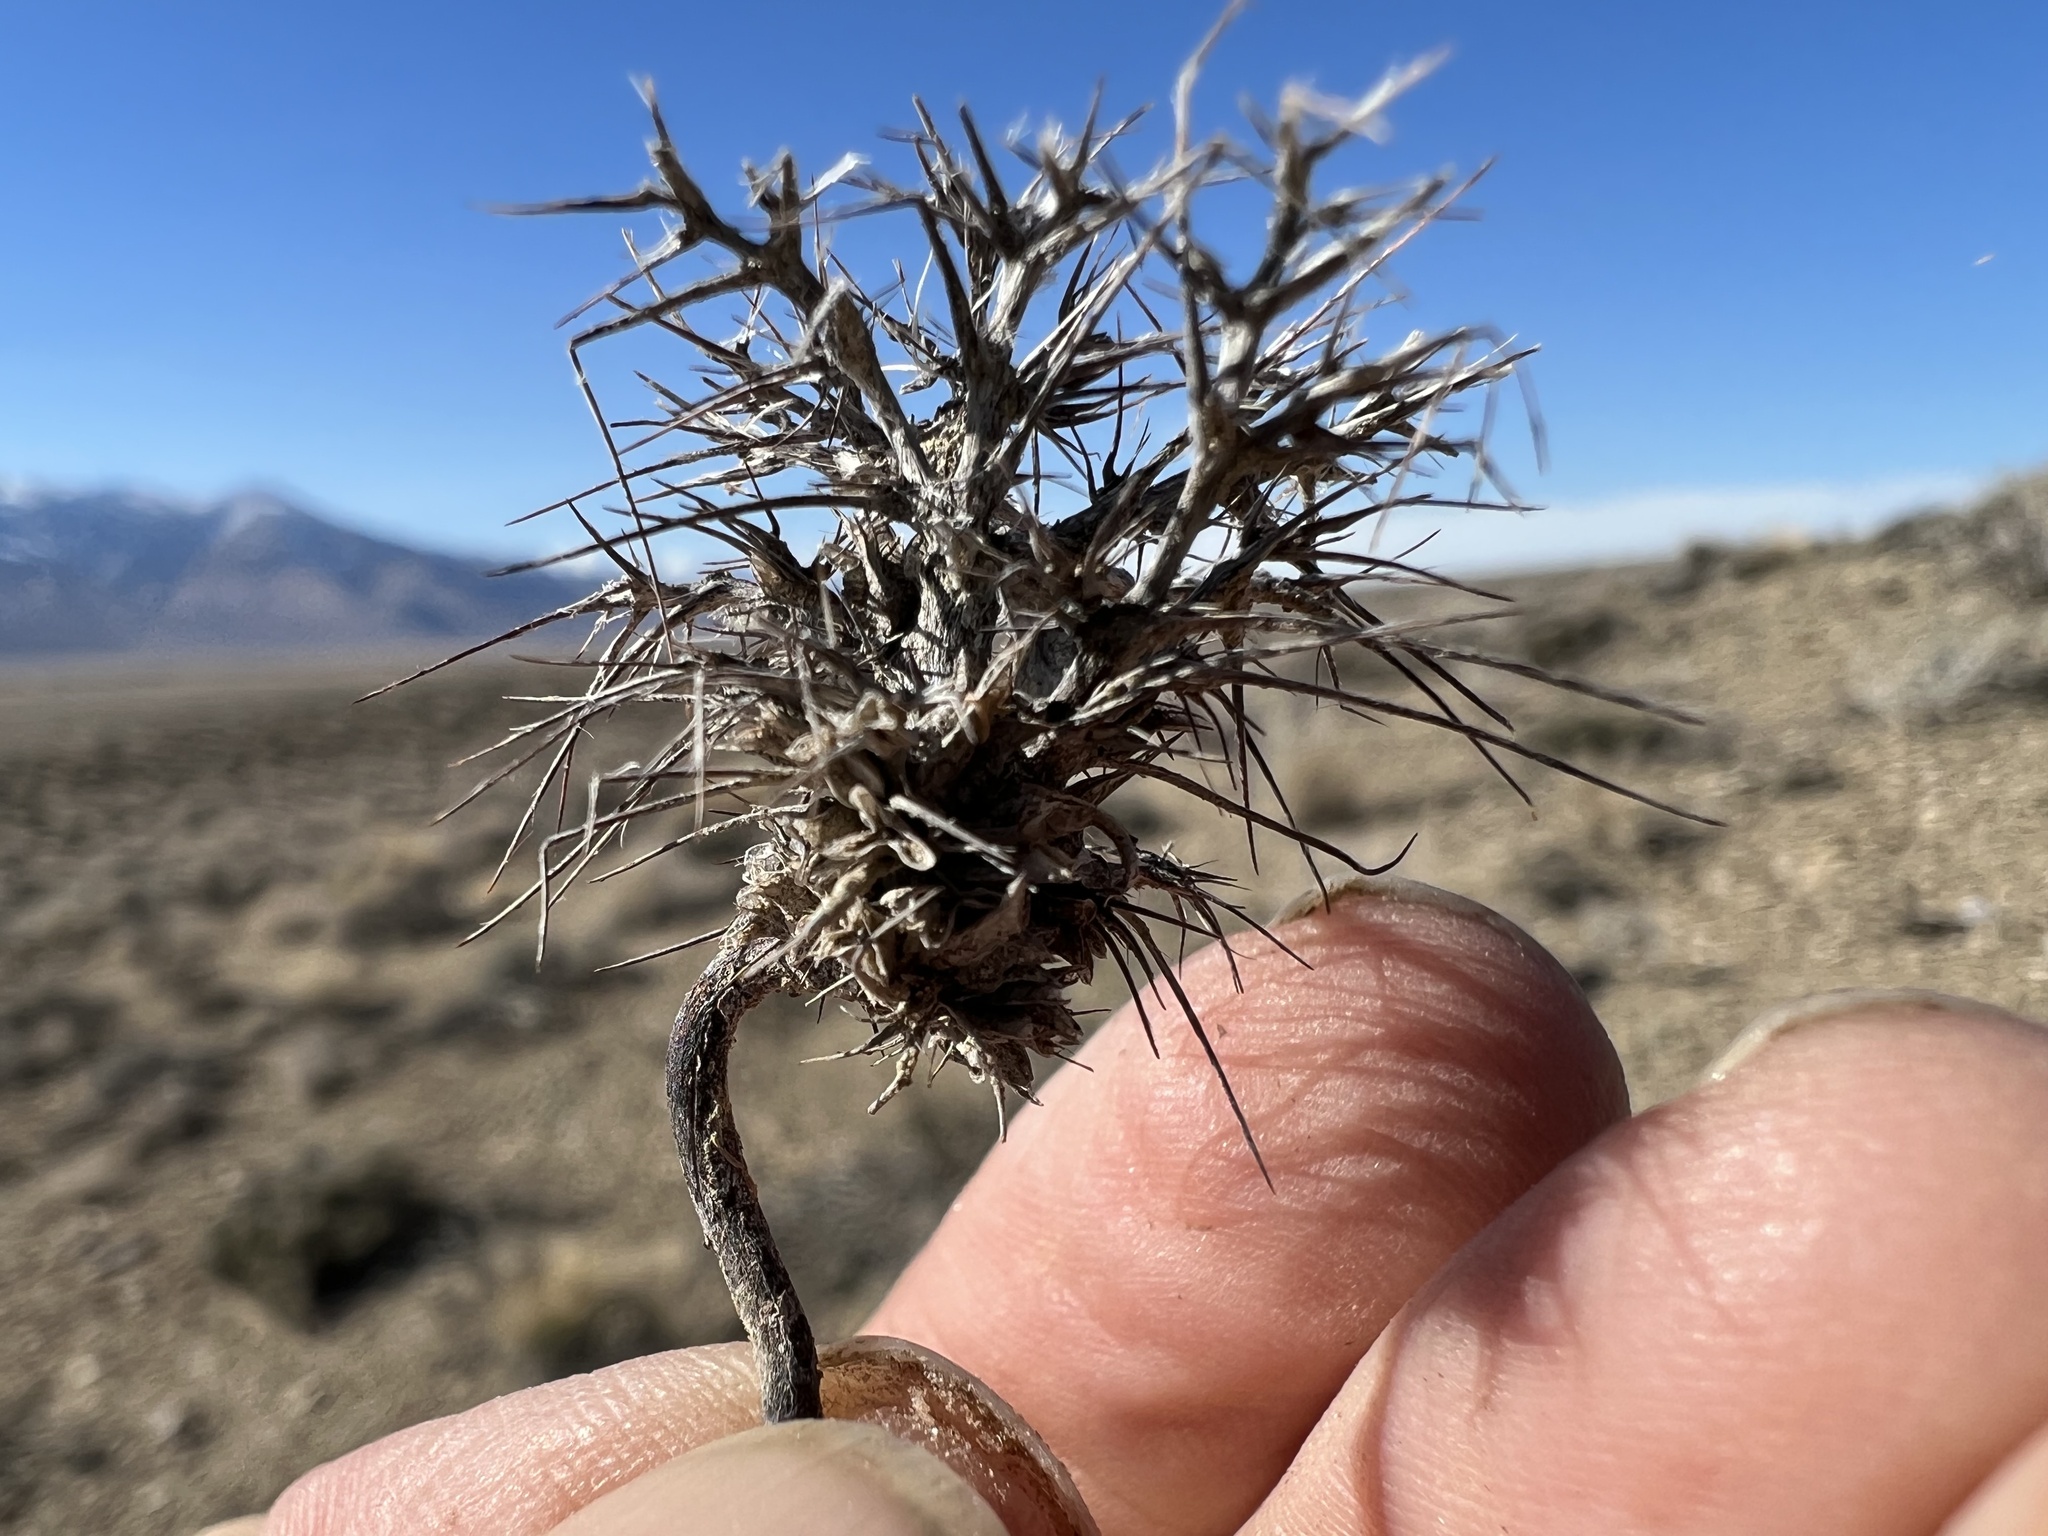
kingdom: Plantae
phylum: Tracheophyta
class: Magnoliopsida
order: Caryophyllales
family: Polygonaceae
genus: Chorizanthe
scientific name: Chorizanthe rigida
